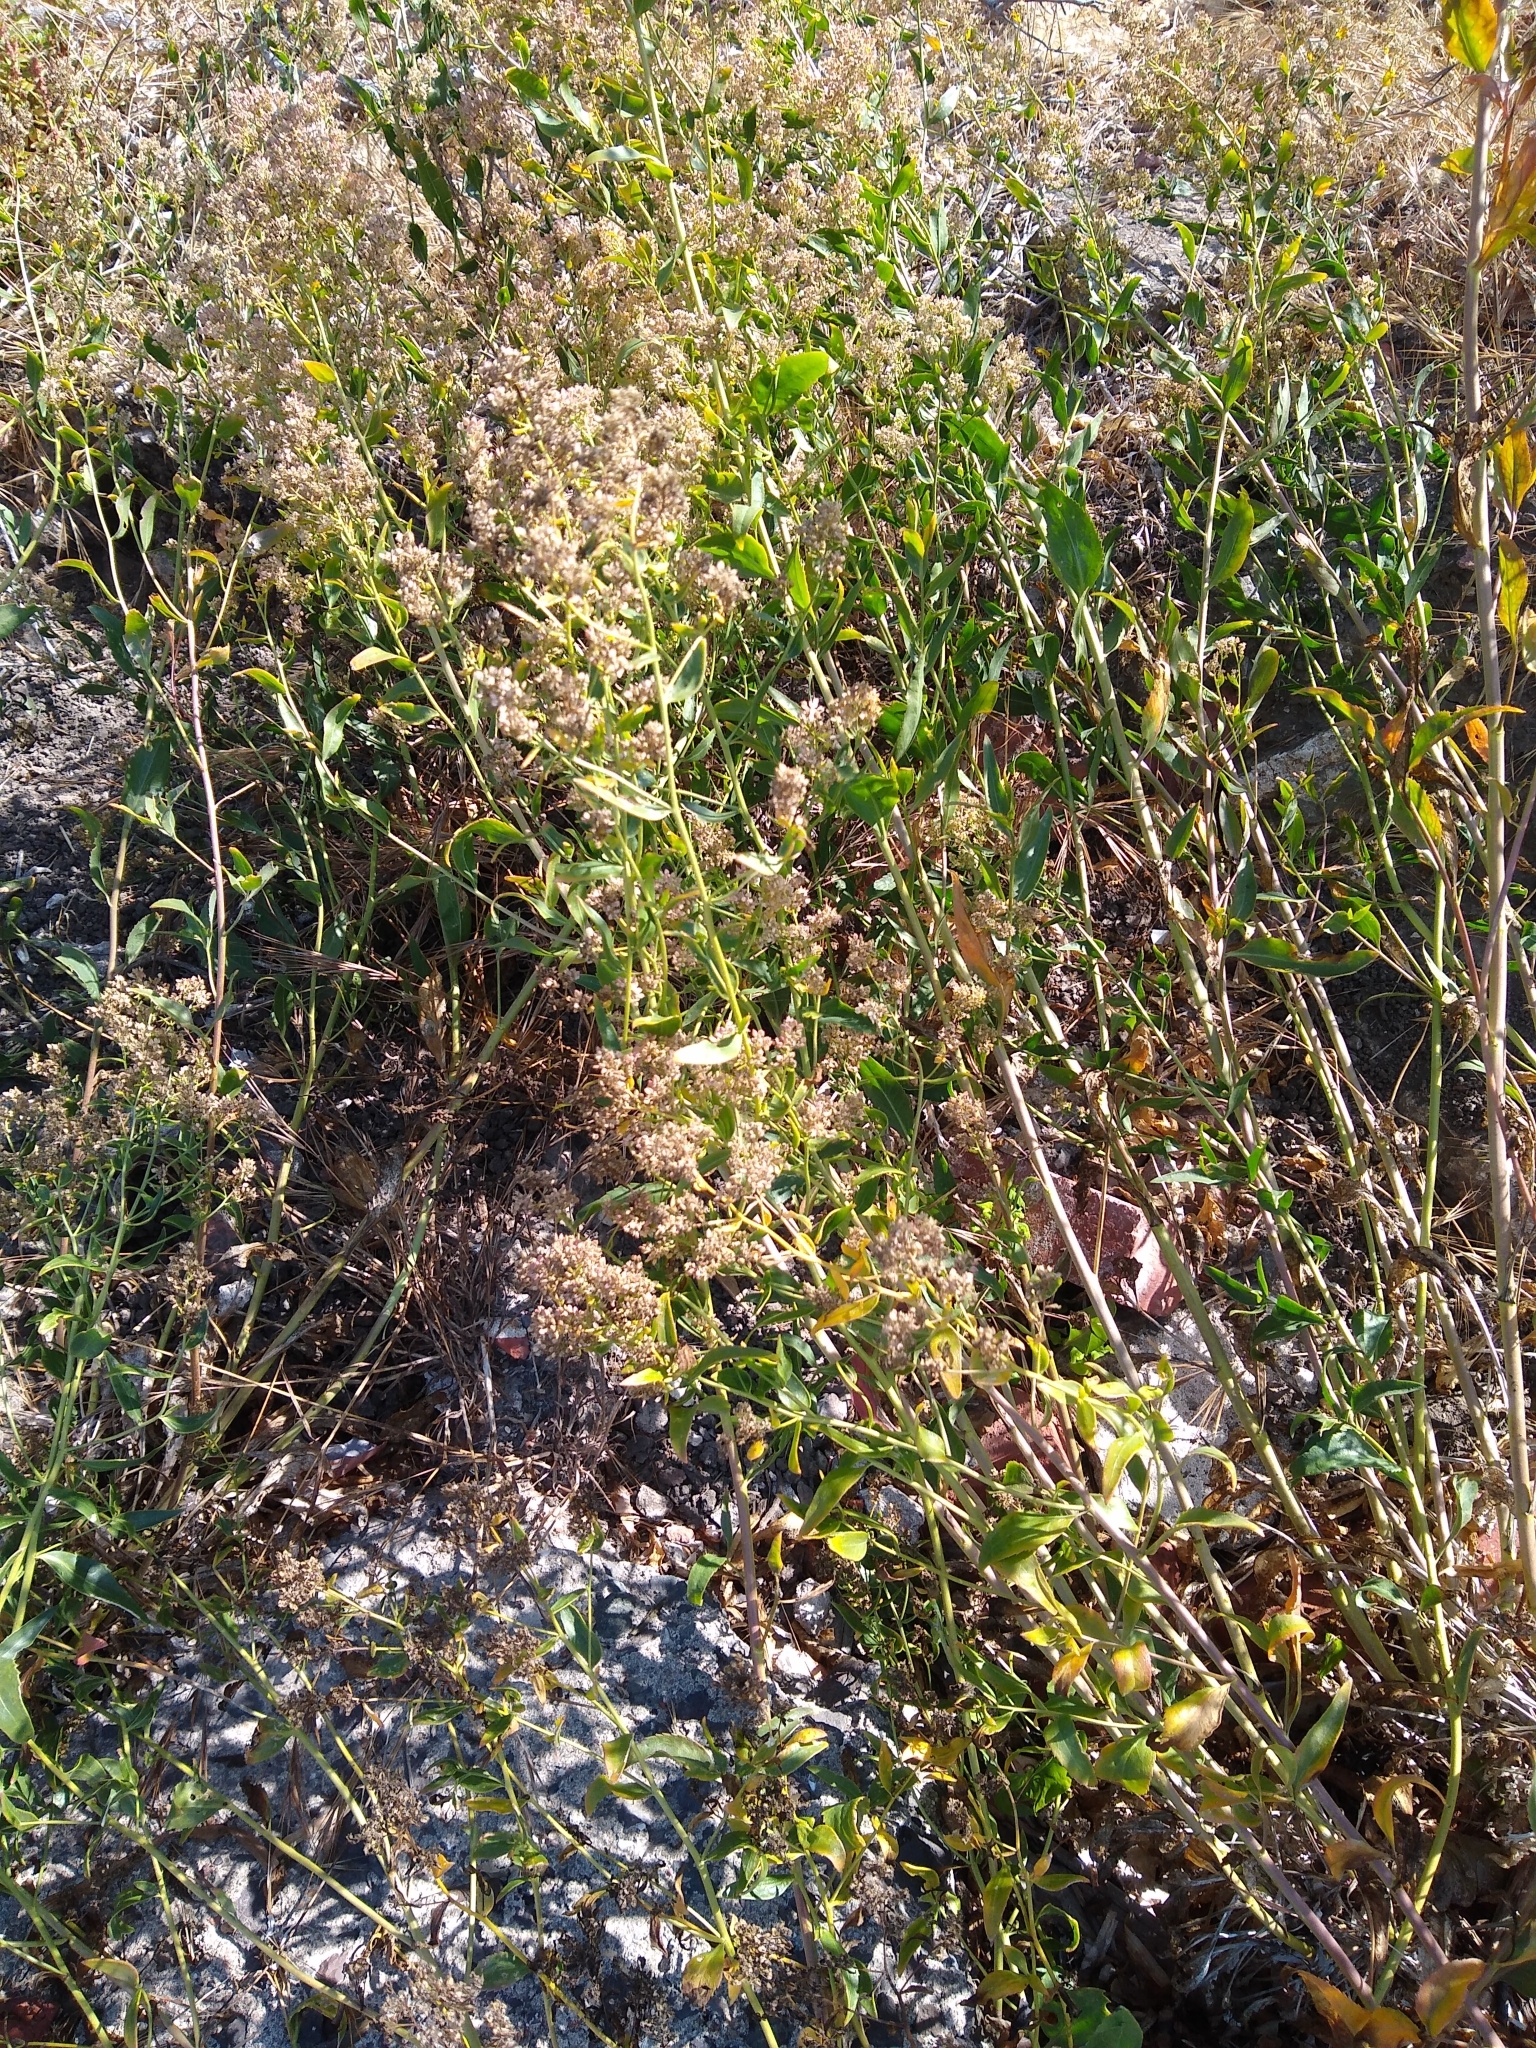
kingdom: Plantae
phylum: Tracheophyta
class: Magnoliopsida
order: Brassicales
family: Brassicaceae
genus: Lepidium
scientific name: Lepidium latifolium
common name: Dittander
